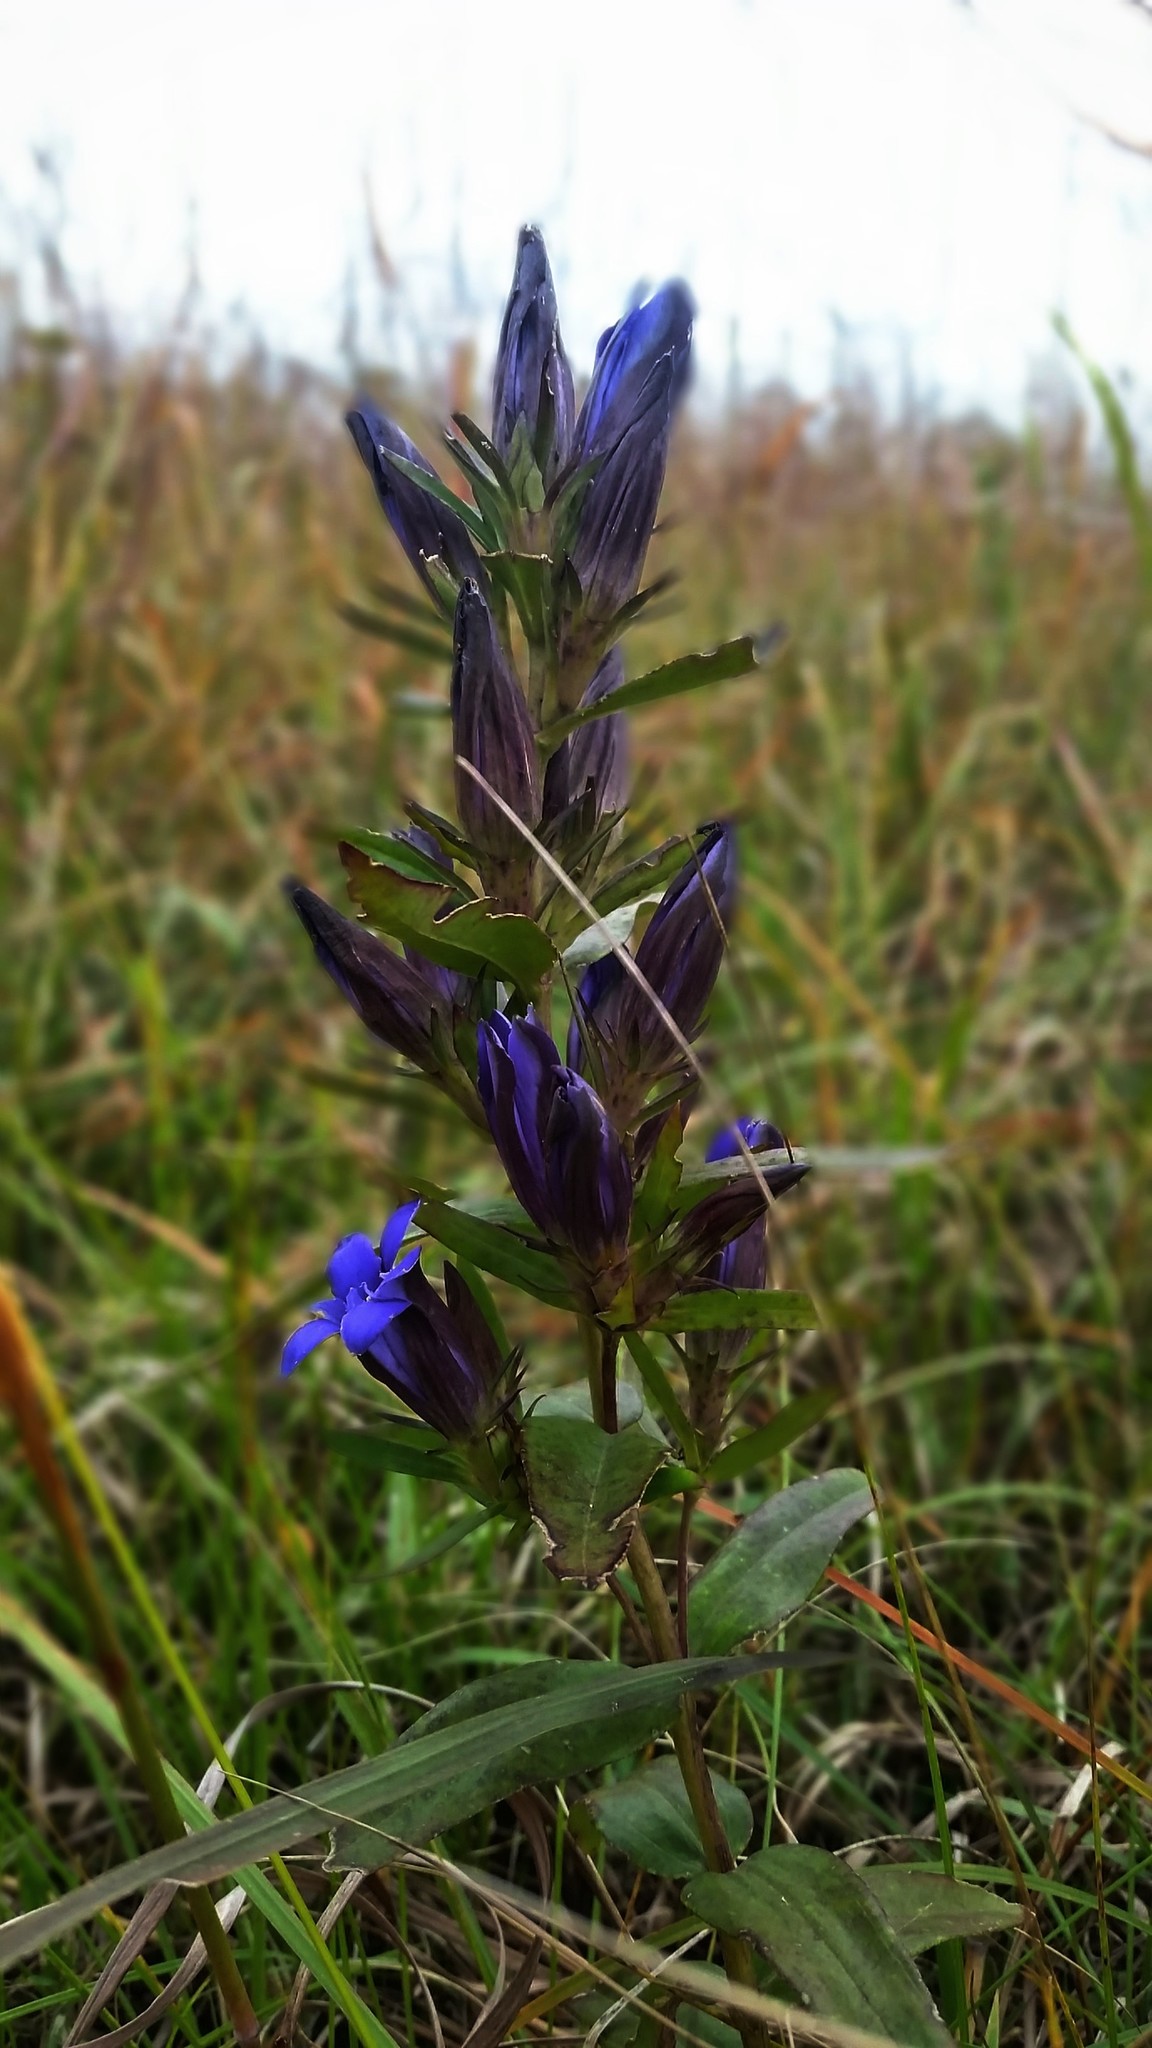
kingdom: Plantae
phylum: Tracheophyta
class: Magnoliopsida
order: Gentianales
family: Gentianaceae
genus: Gentiana
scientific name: Gentiana puberulenta
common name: Downy gentian
